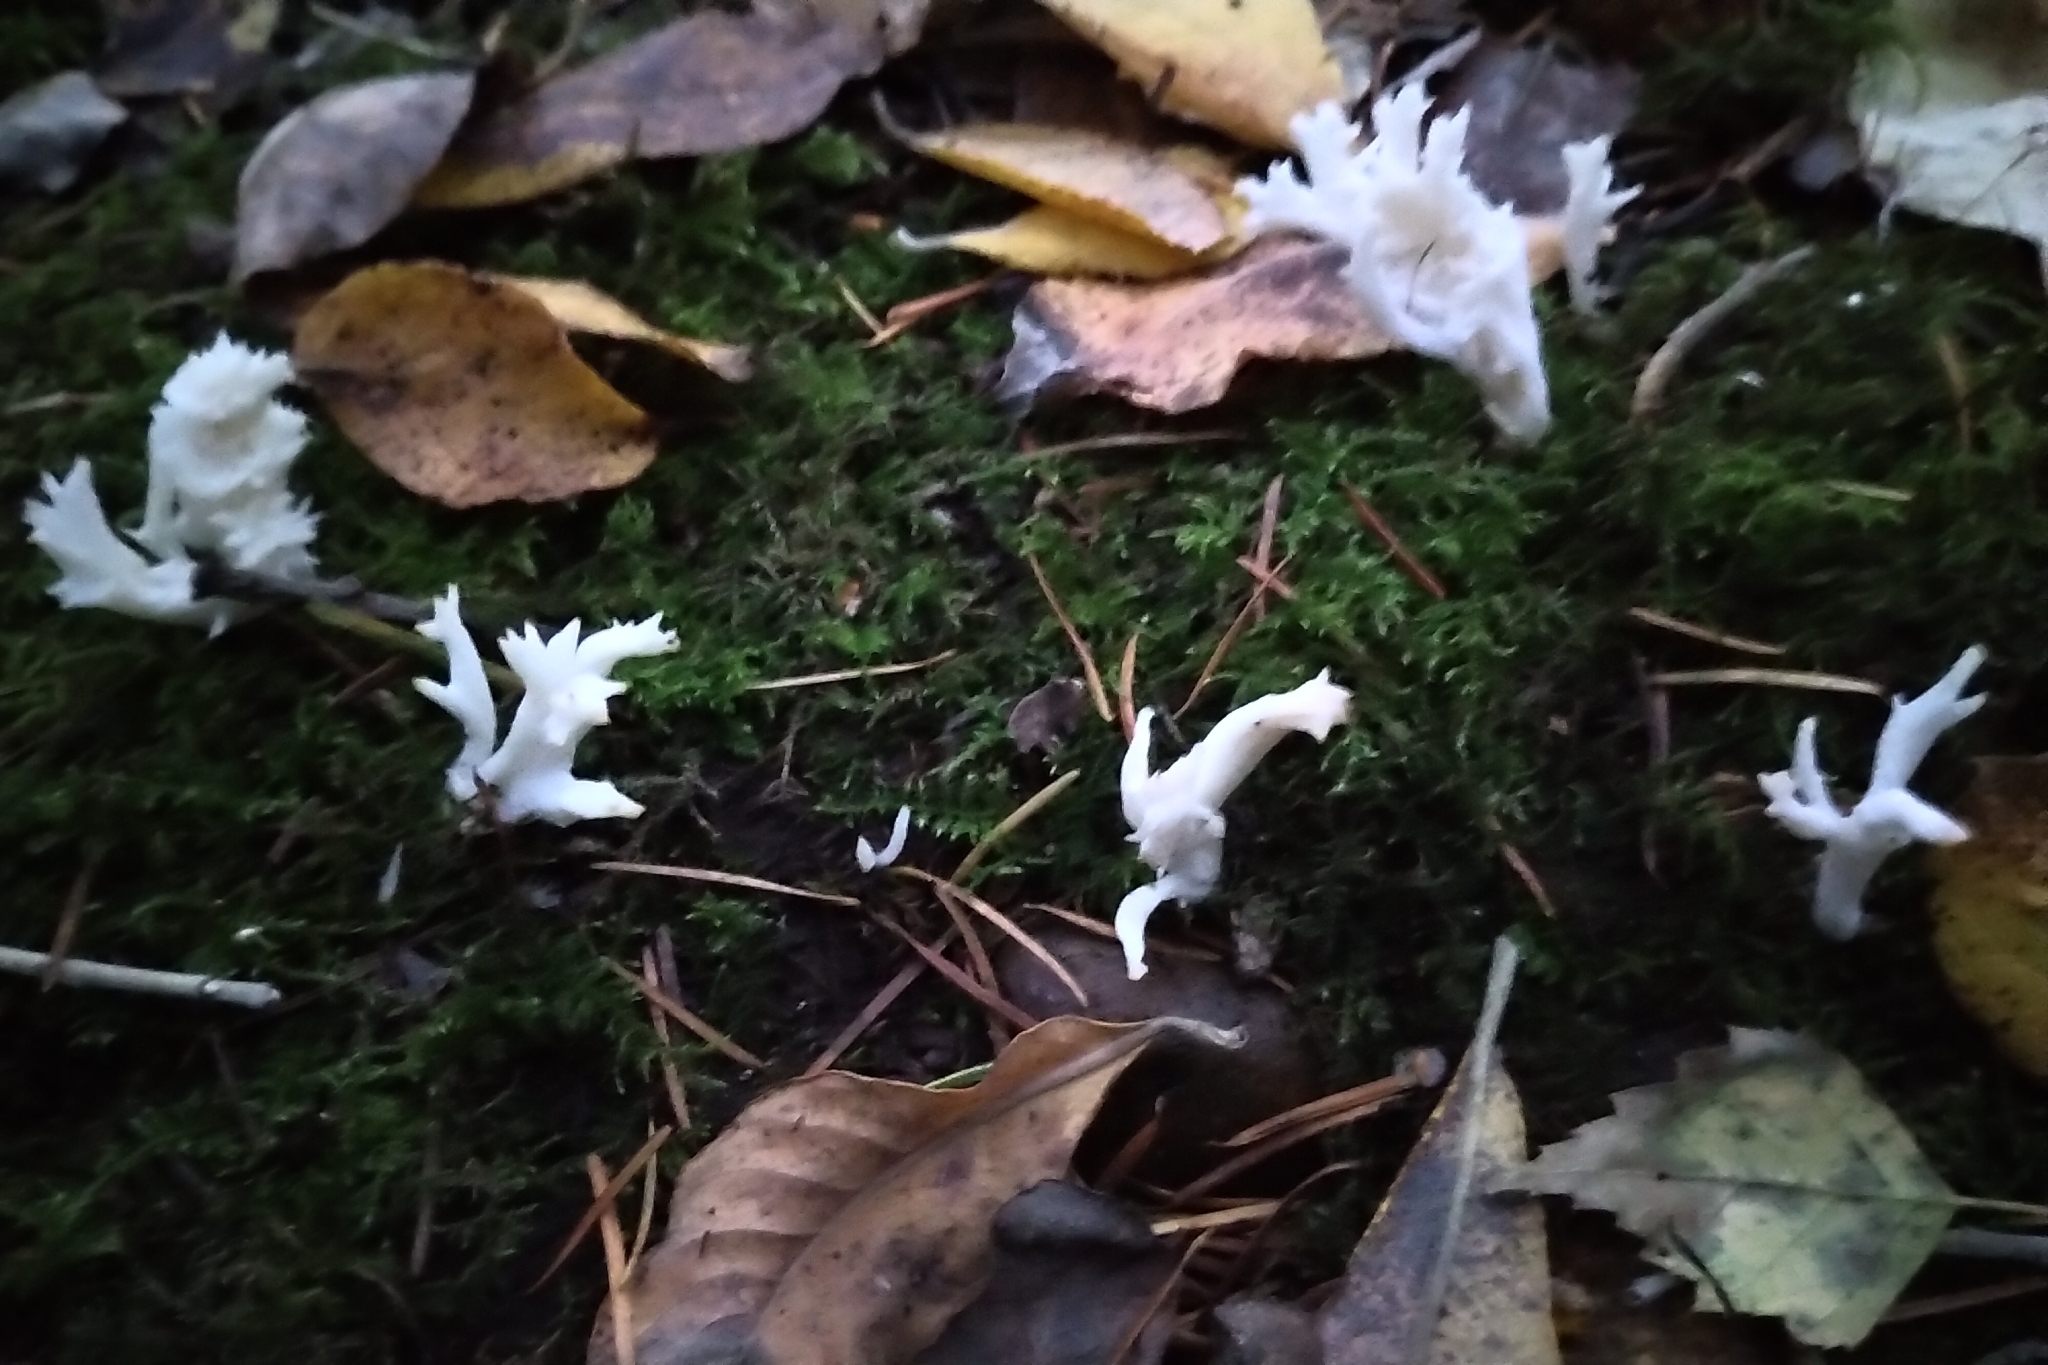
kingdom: Fungi
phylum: Basidiomycota
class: Agaricomycetes
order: Cantharellales
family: Hydnaceae
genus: Clavulina
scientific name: Clavulina coralloides
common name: Crested coral
